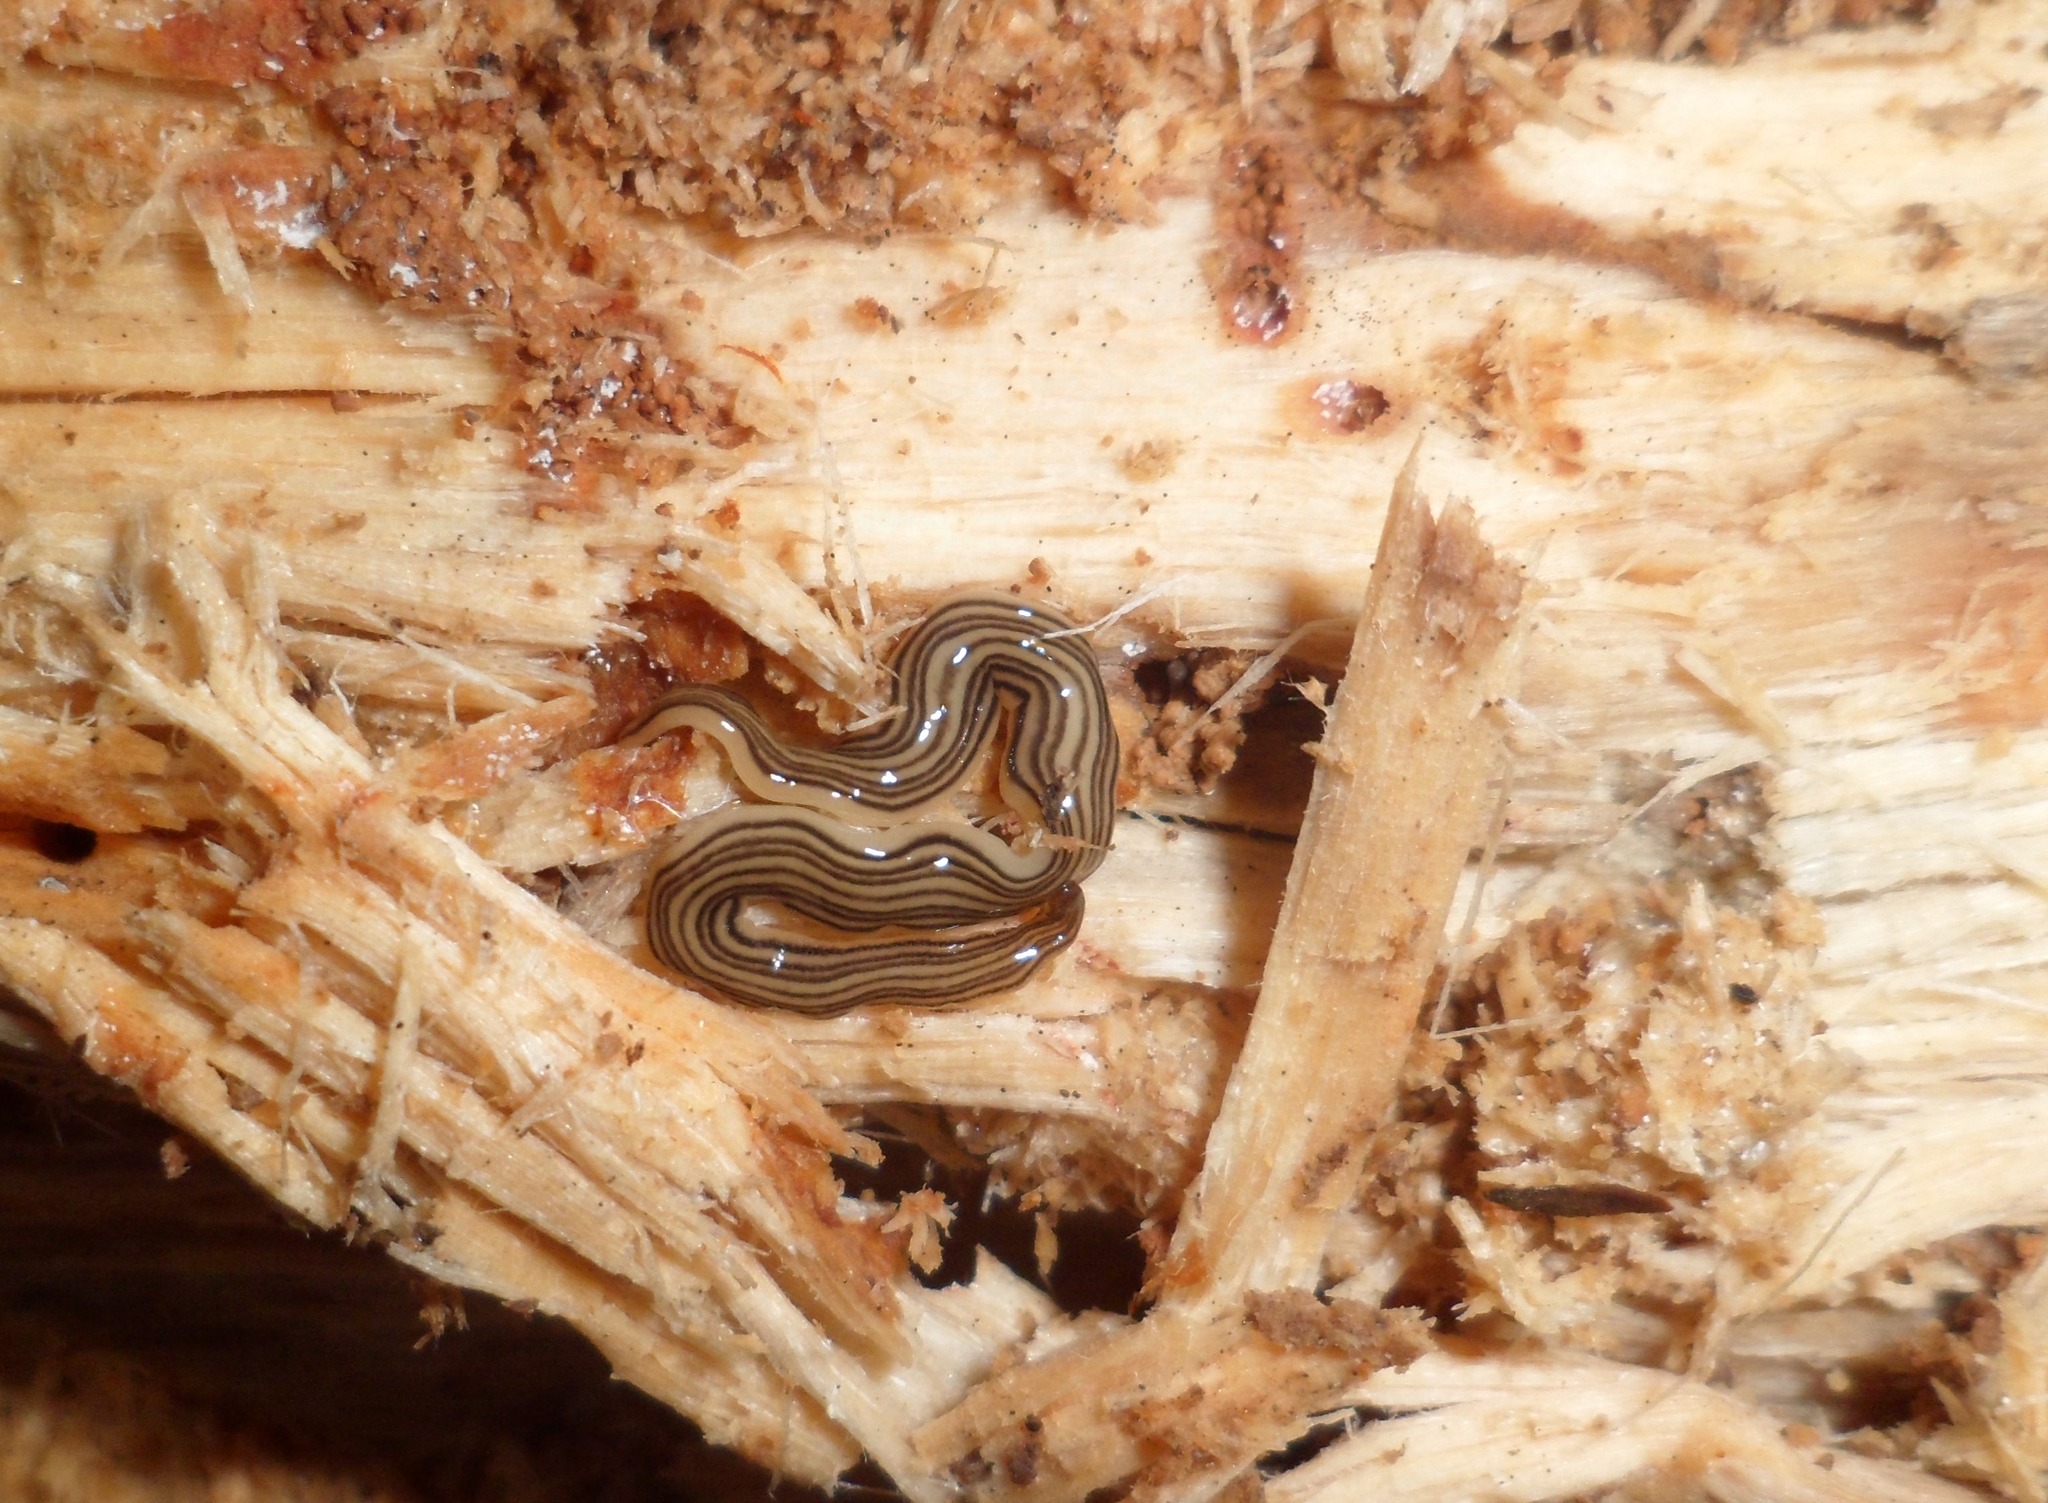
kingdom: Animalia
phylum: Platyhelminthes
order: Tricladida
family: Geoplanidae
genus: Luteostriata
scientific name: Luteostriata abundans
